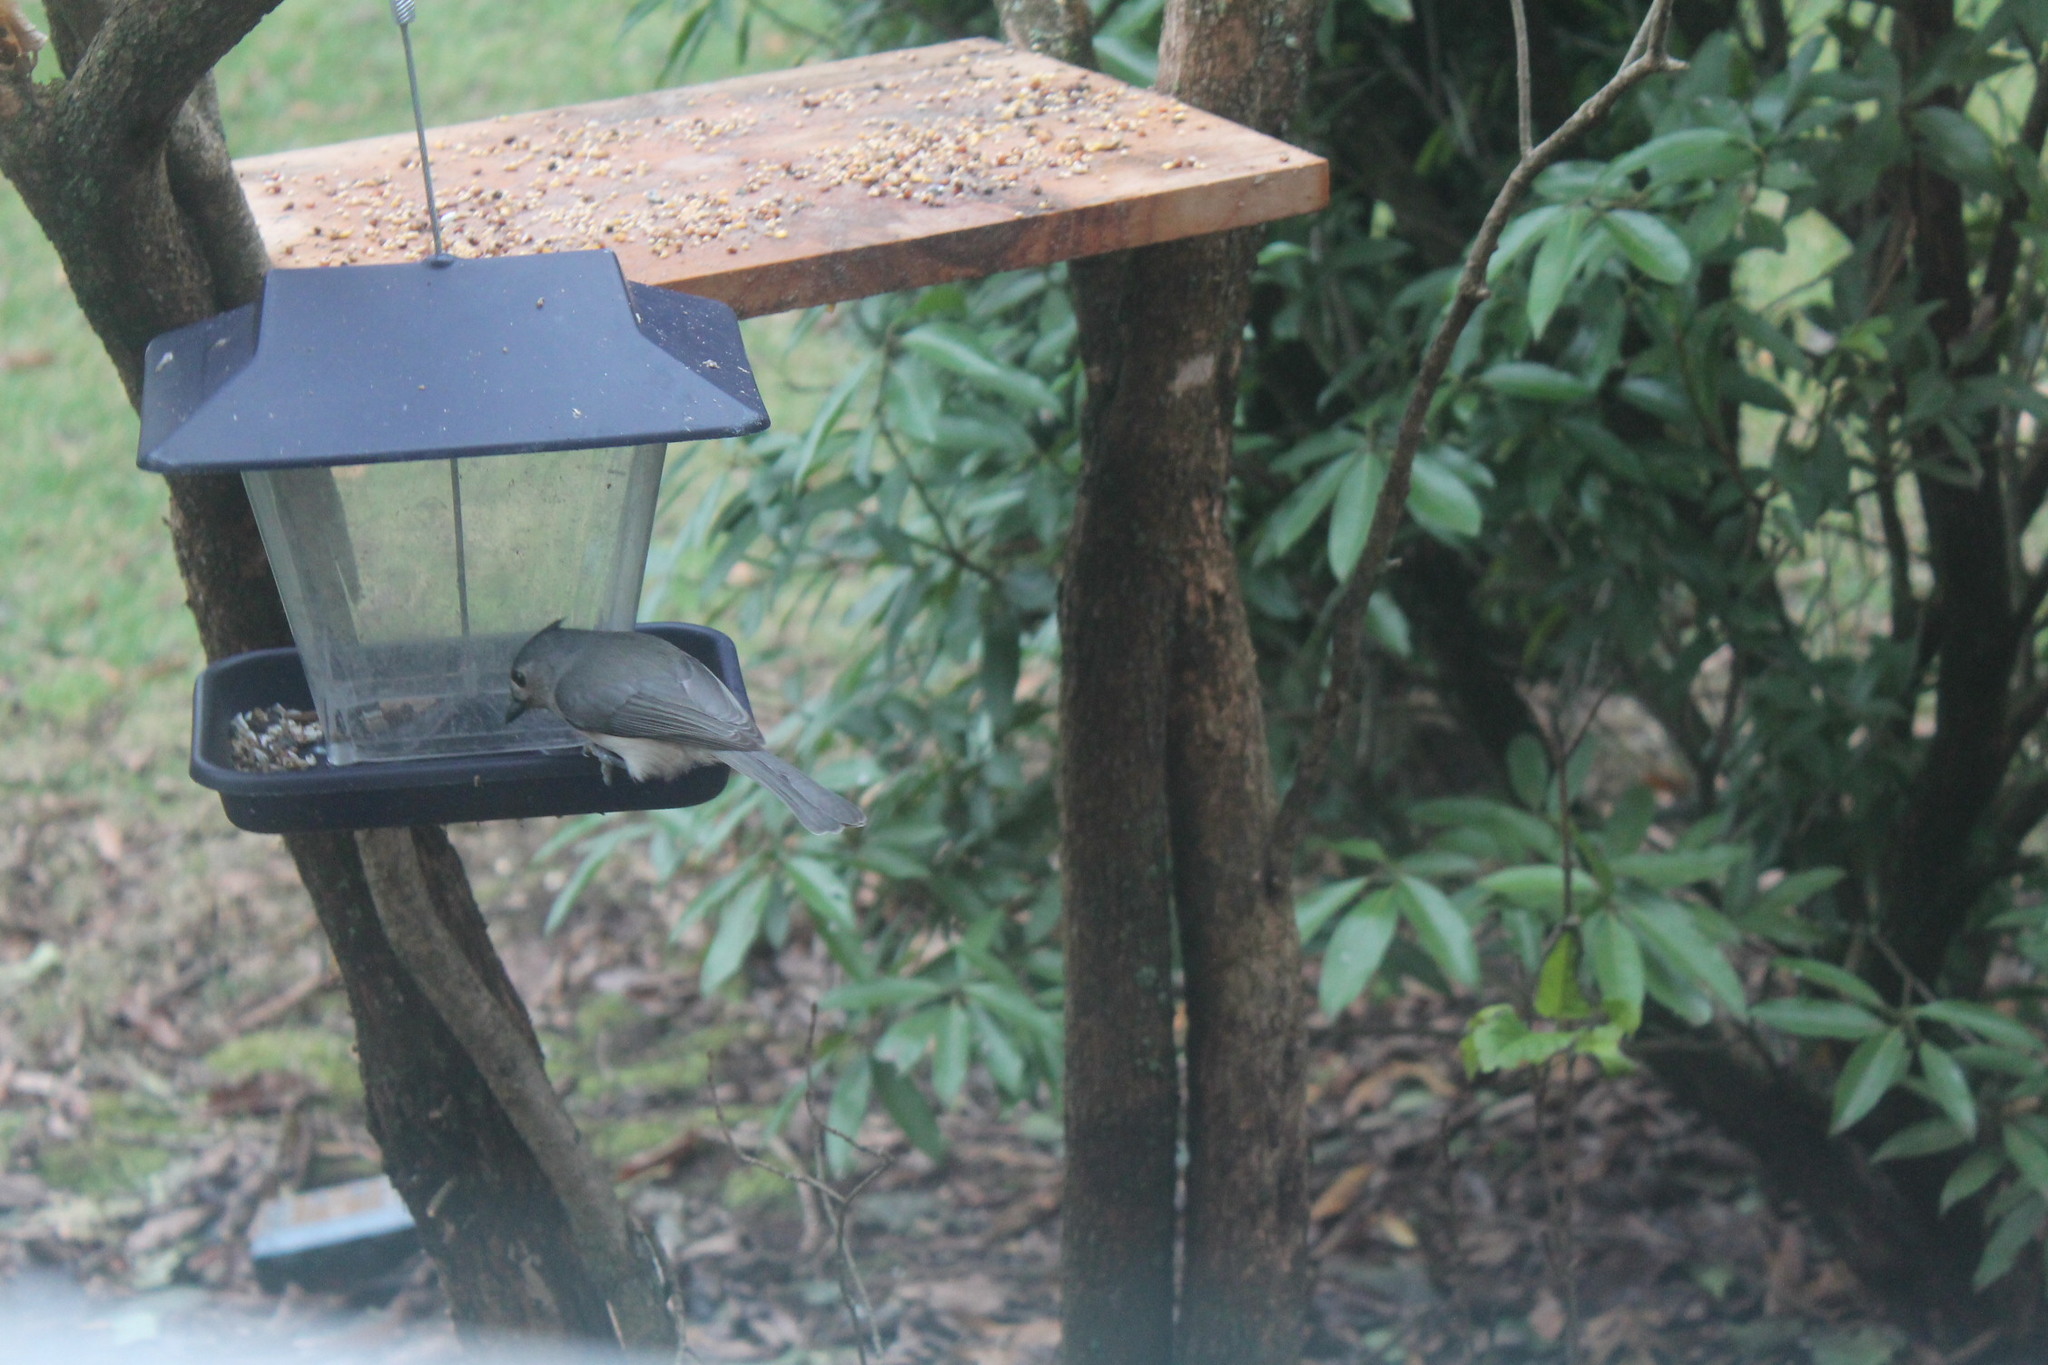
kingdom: Animalia
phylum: Chordata
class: Aves
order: Passeriformes
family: Paridae
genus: Baeolophus
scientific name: Baeolophus bicolor
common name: Tufted titmouse
